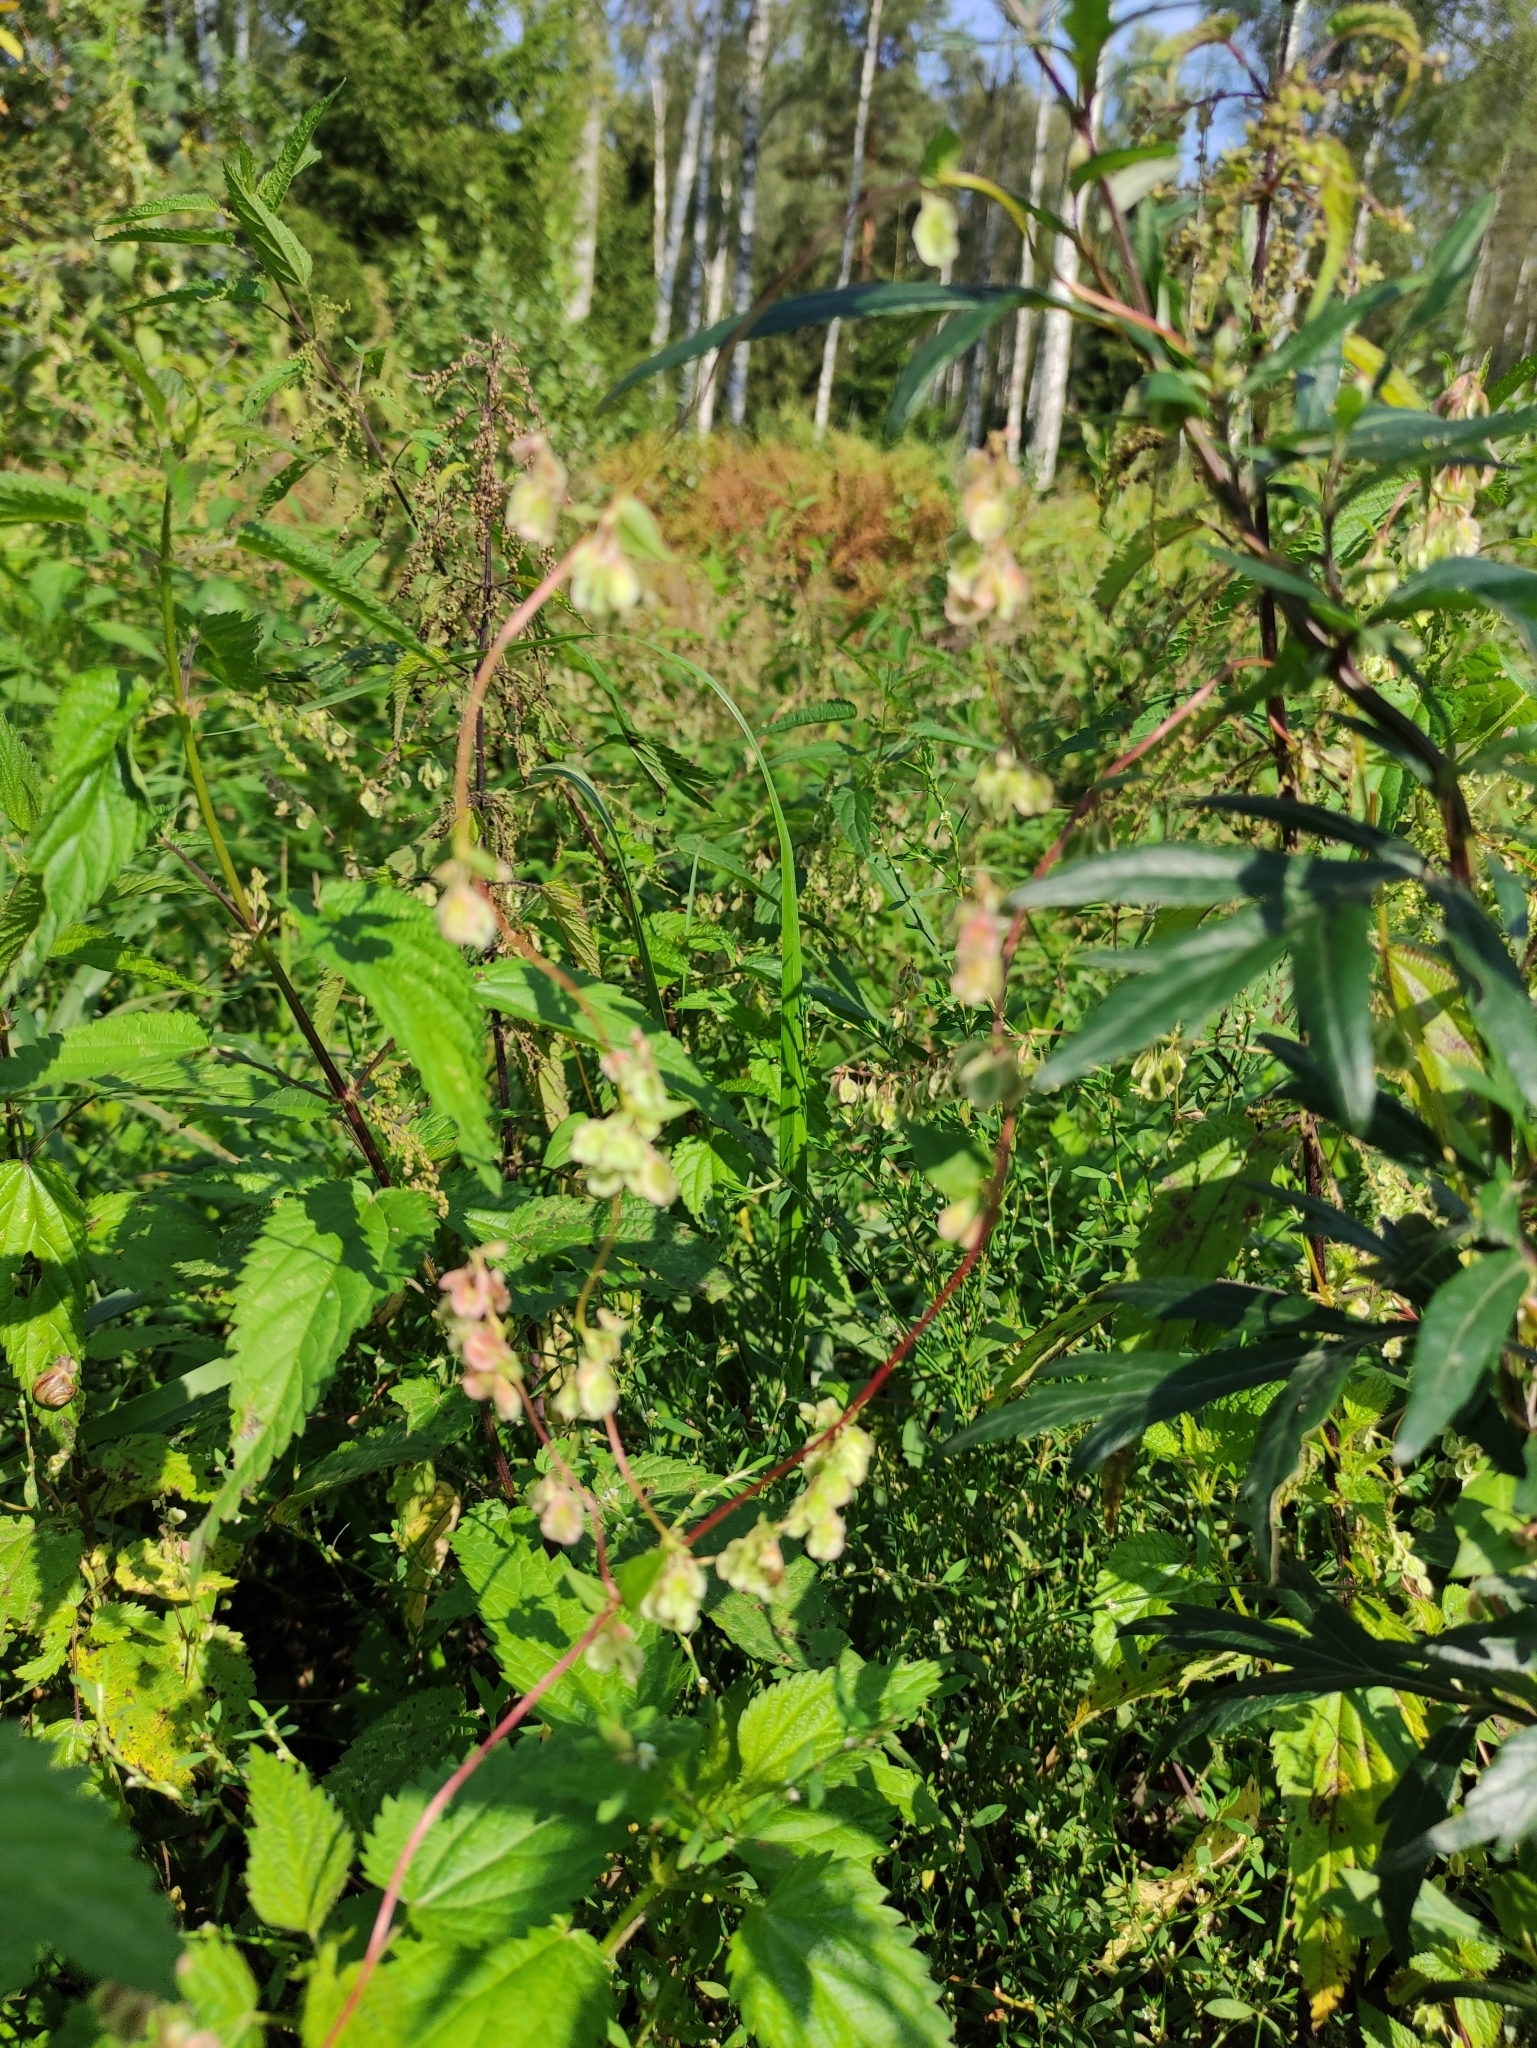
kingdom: Plantae
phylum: Tracheophyta
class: Magnoliopsida
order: Caryophyllales
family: Polygonaceae
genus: Fallopia
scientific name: Fallopia dumetorum
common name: Copse-bindweed
